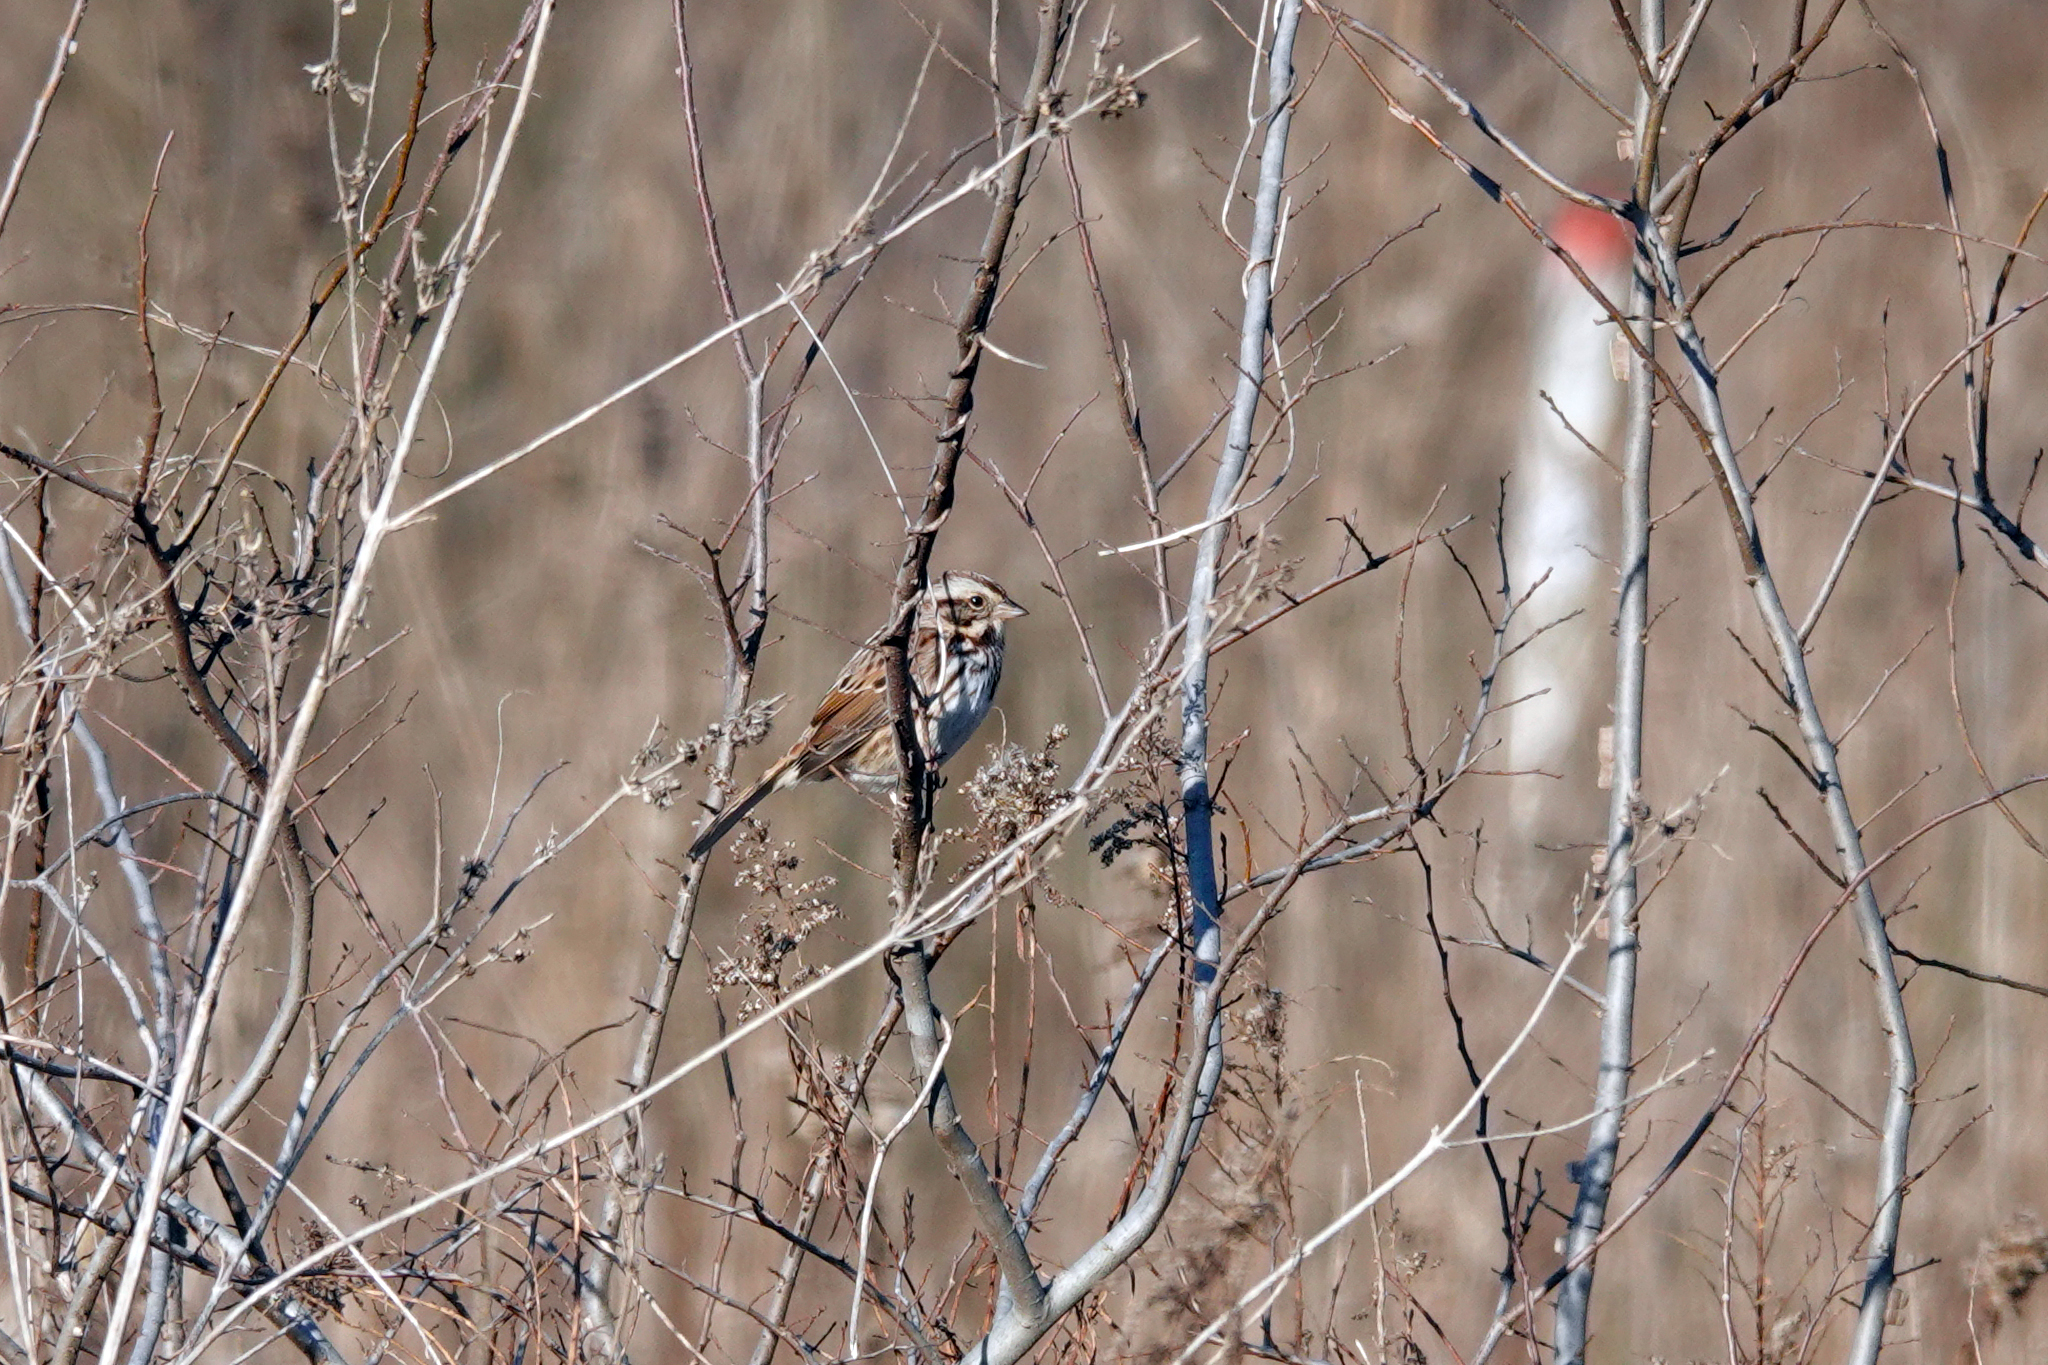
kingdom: Animalia
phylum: Chordata
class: Aves
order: Passeriformes
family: Passerellidae
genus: Melospiza
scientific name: Melospiza melodia
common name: Song sparrow
